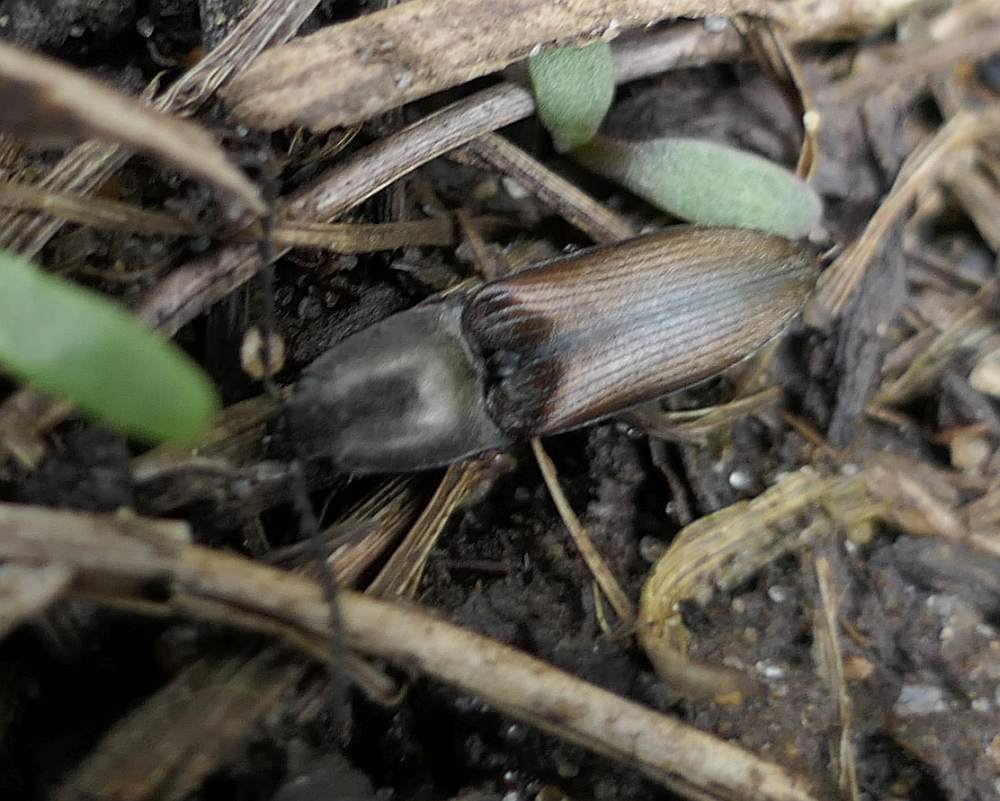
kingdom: Animalia
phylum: Arthropoda
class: Insecta
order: Coleoptera
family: Elateridae
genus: Corymbitodes
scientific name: Corymbitodes tarsalis
